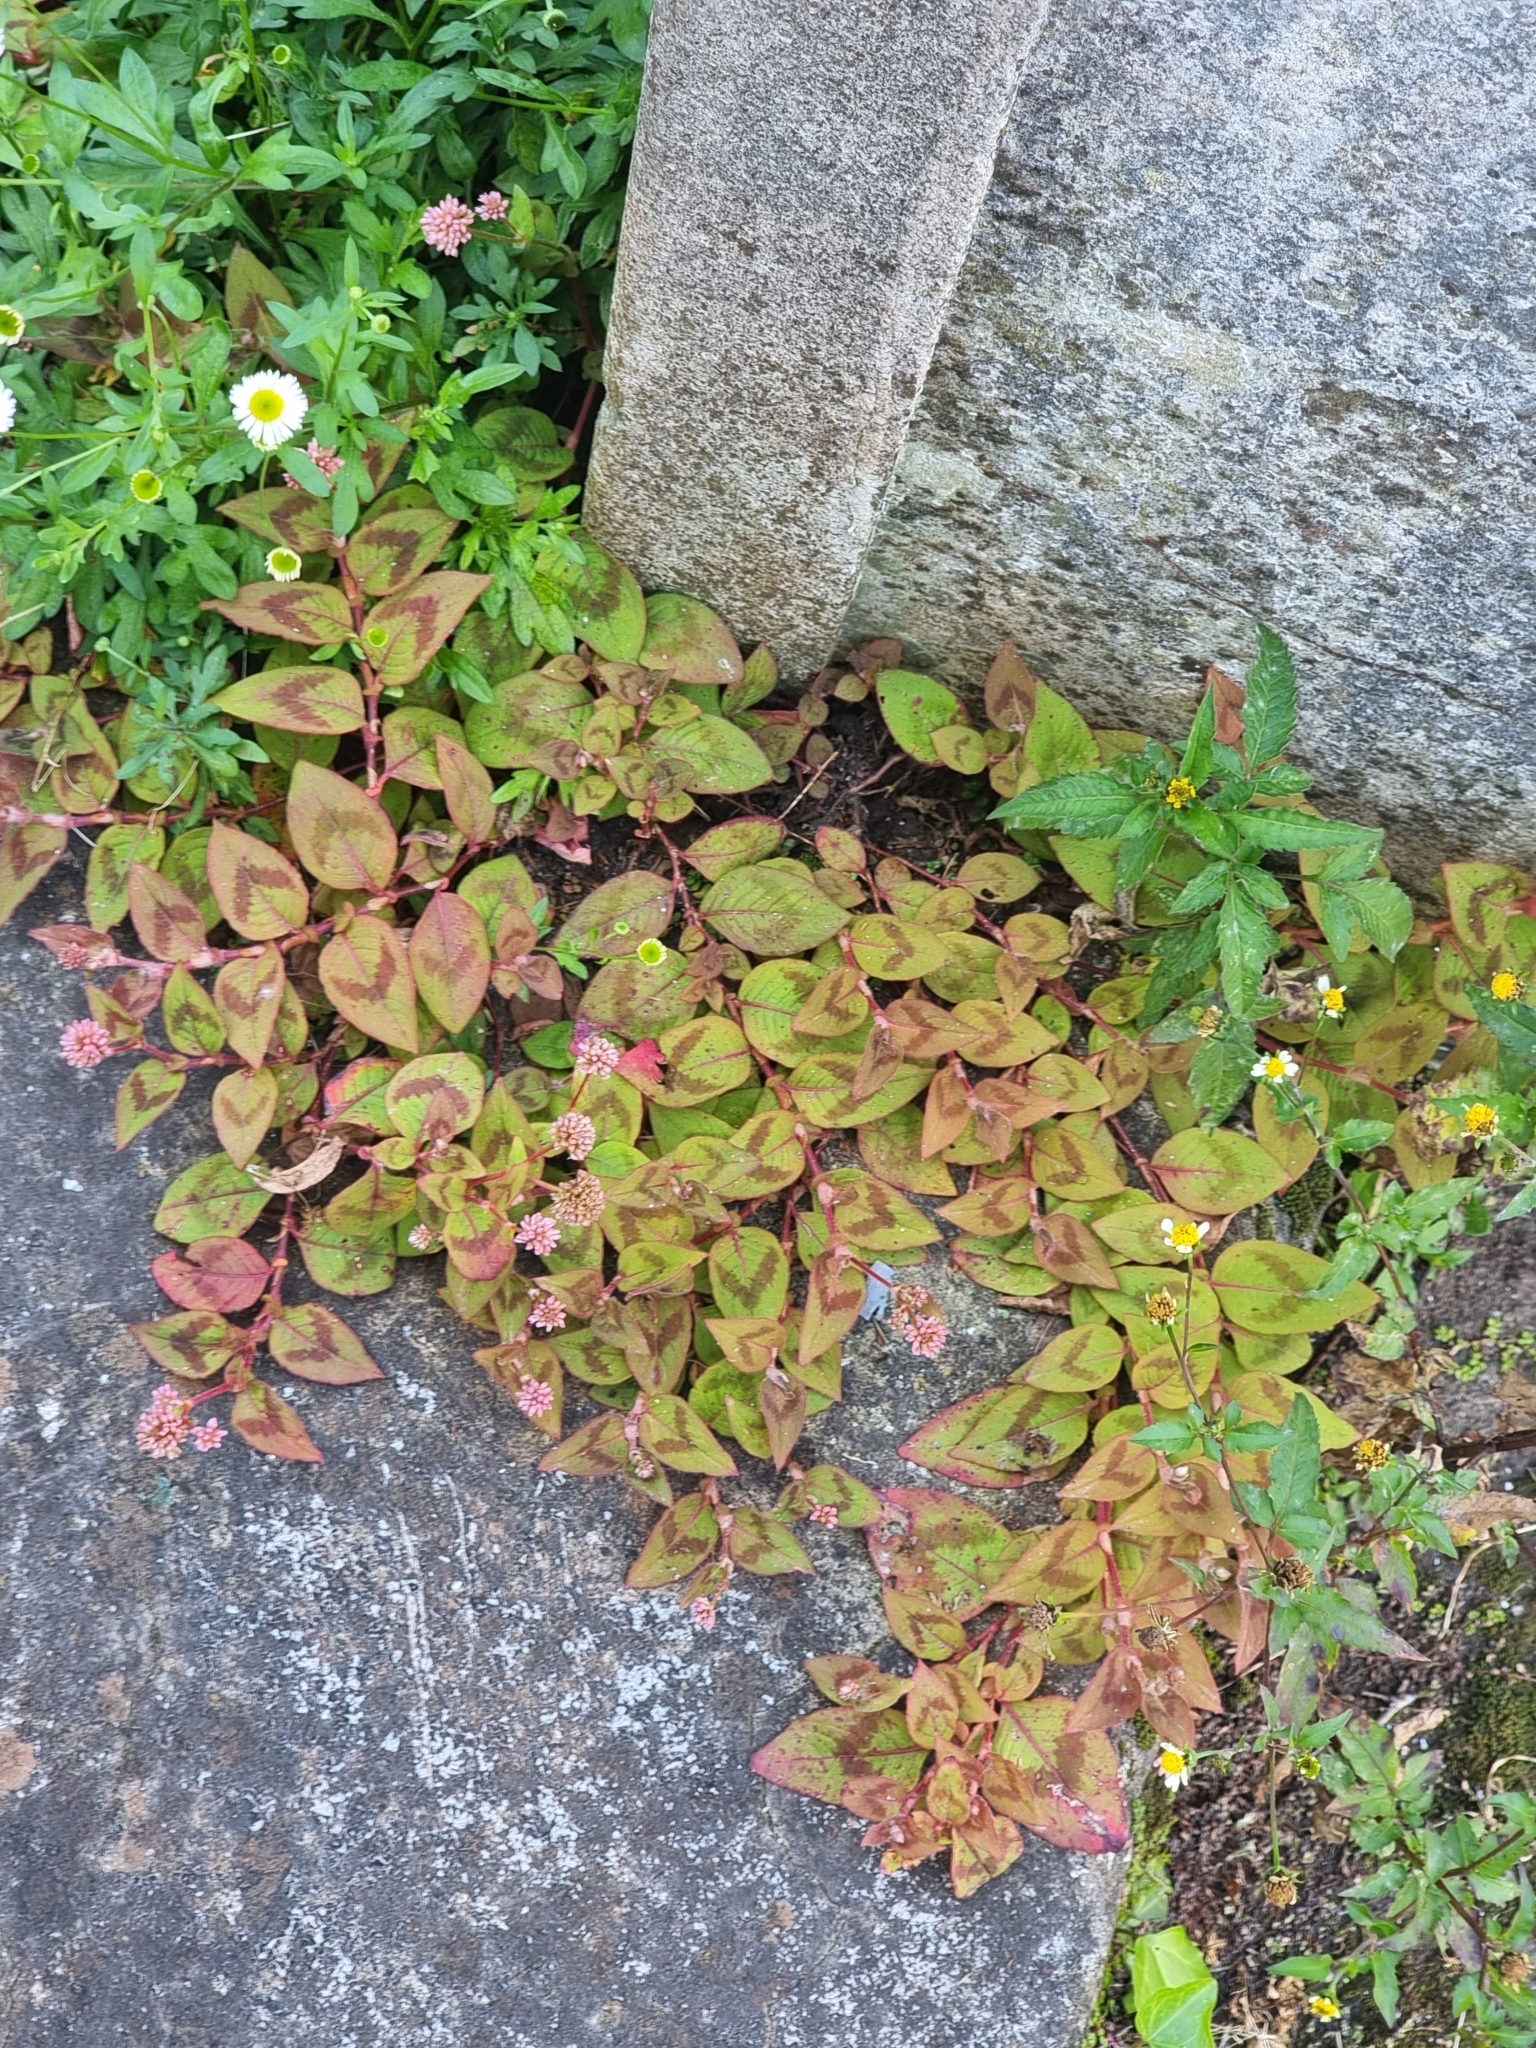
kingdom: Plantae
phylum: Tracheophyta
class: Magnoliopsida
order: Caryophyllales
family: Polygonaceae
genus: Persicaria
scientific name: Persicaria capitata
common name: Pinkhead smartweed
